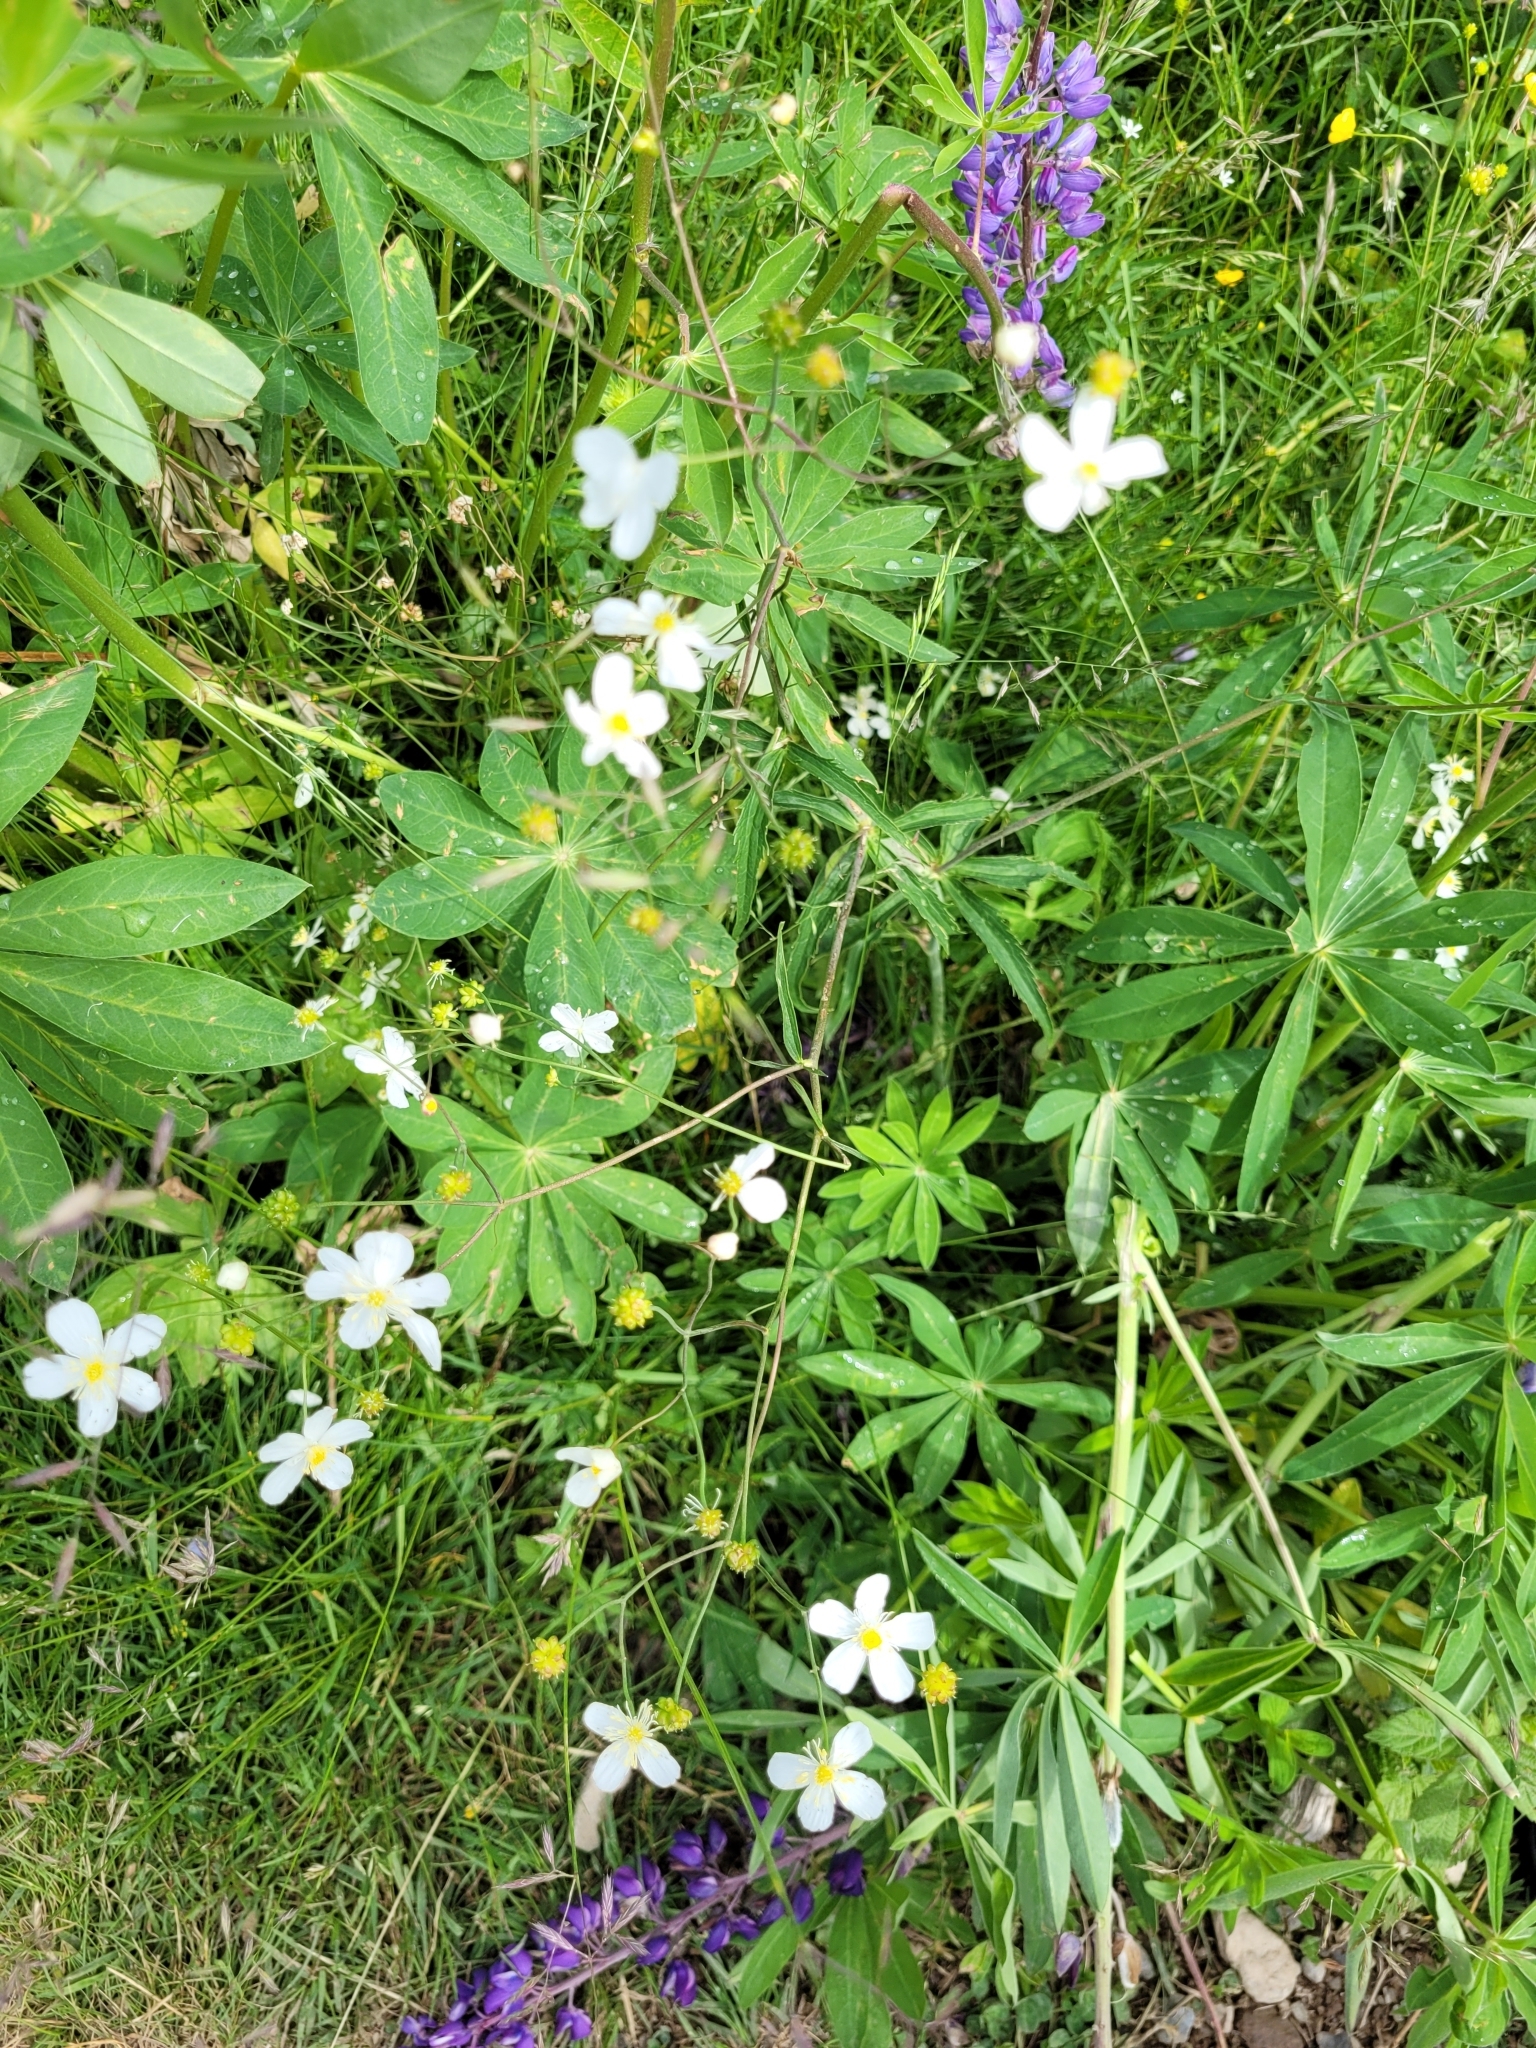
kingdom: Plantae
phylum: Tracheophyta
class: Magnoliopsida
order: Ranunculales
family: Ranunculaceae
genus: Ranunculus
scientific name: Ranunculus platanifolius
